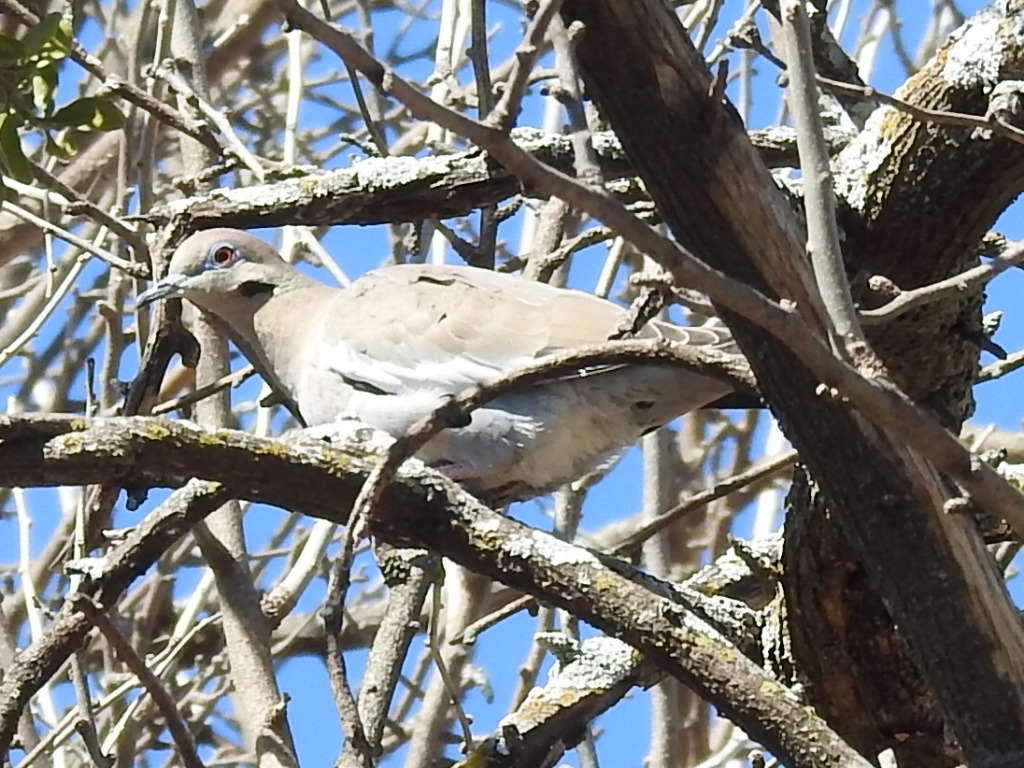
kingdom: Animalia
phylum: Chordata
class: Aves
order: Columbiformes
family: Columbidae
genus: Zenaida
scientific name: Zenaida asiatica
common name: White-winged dove
